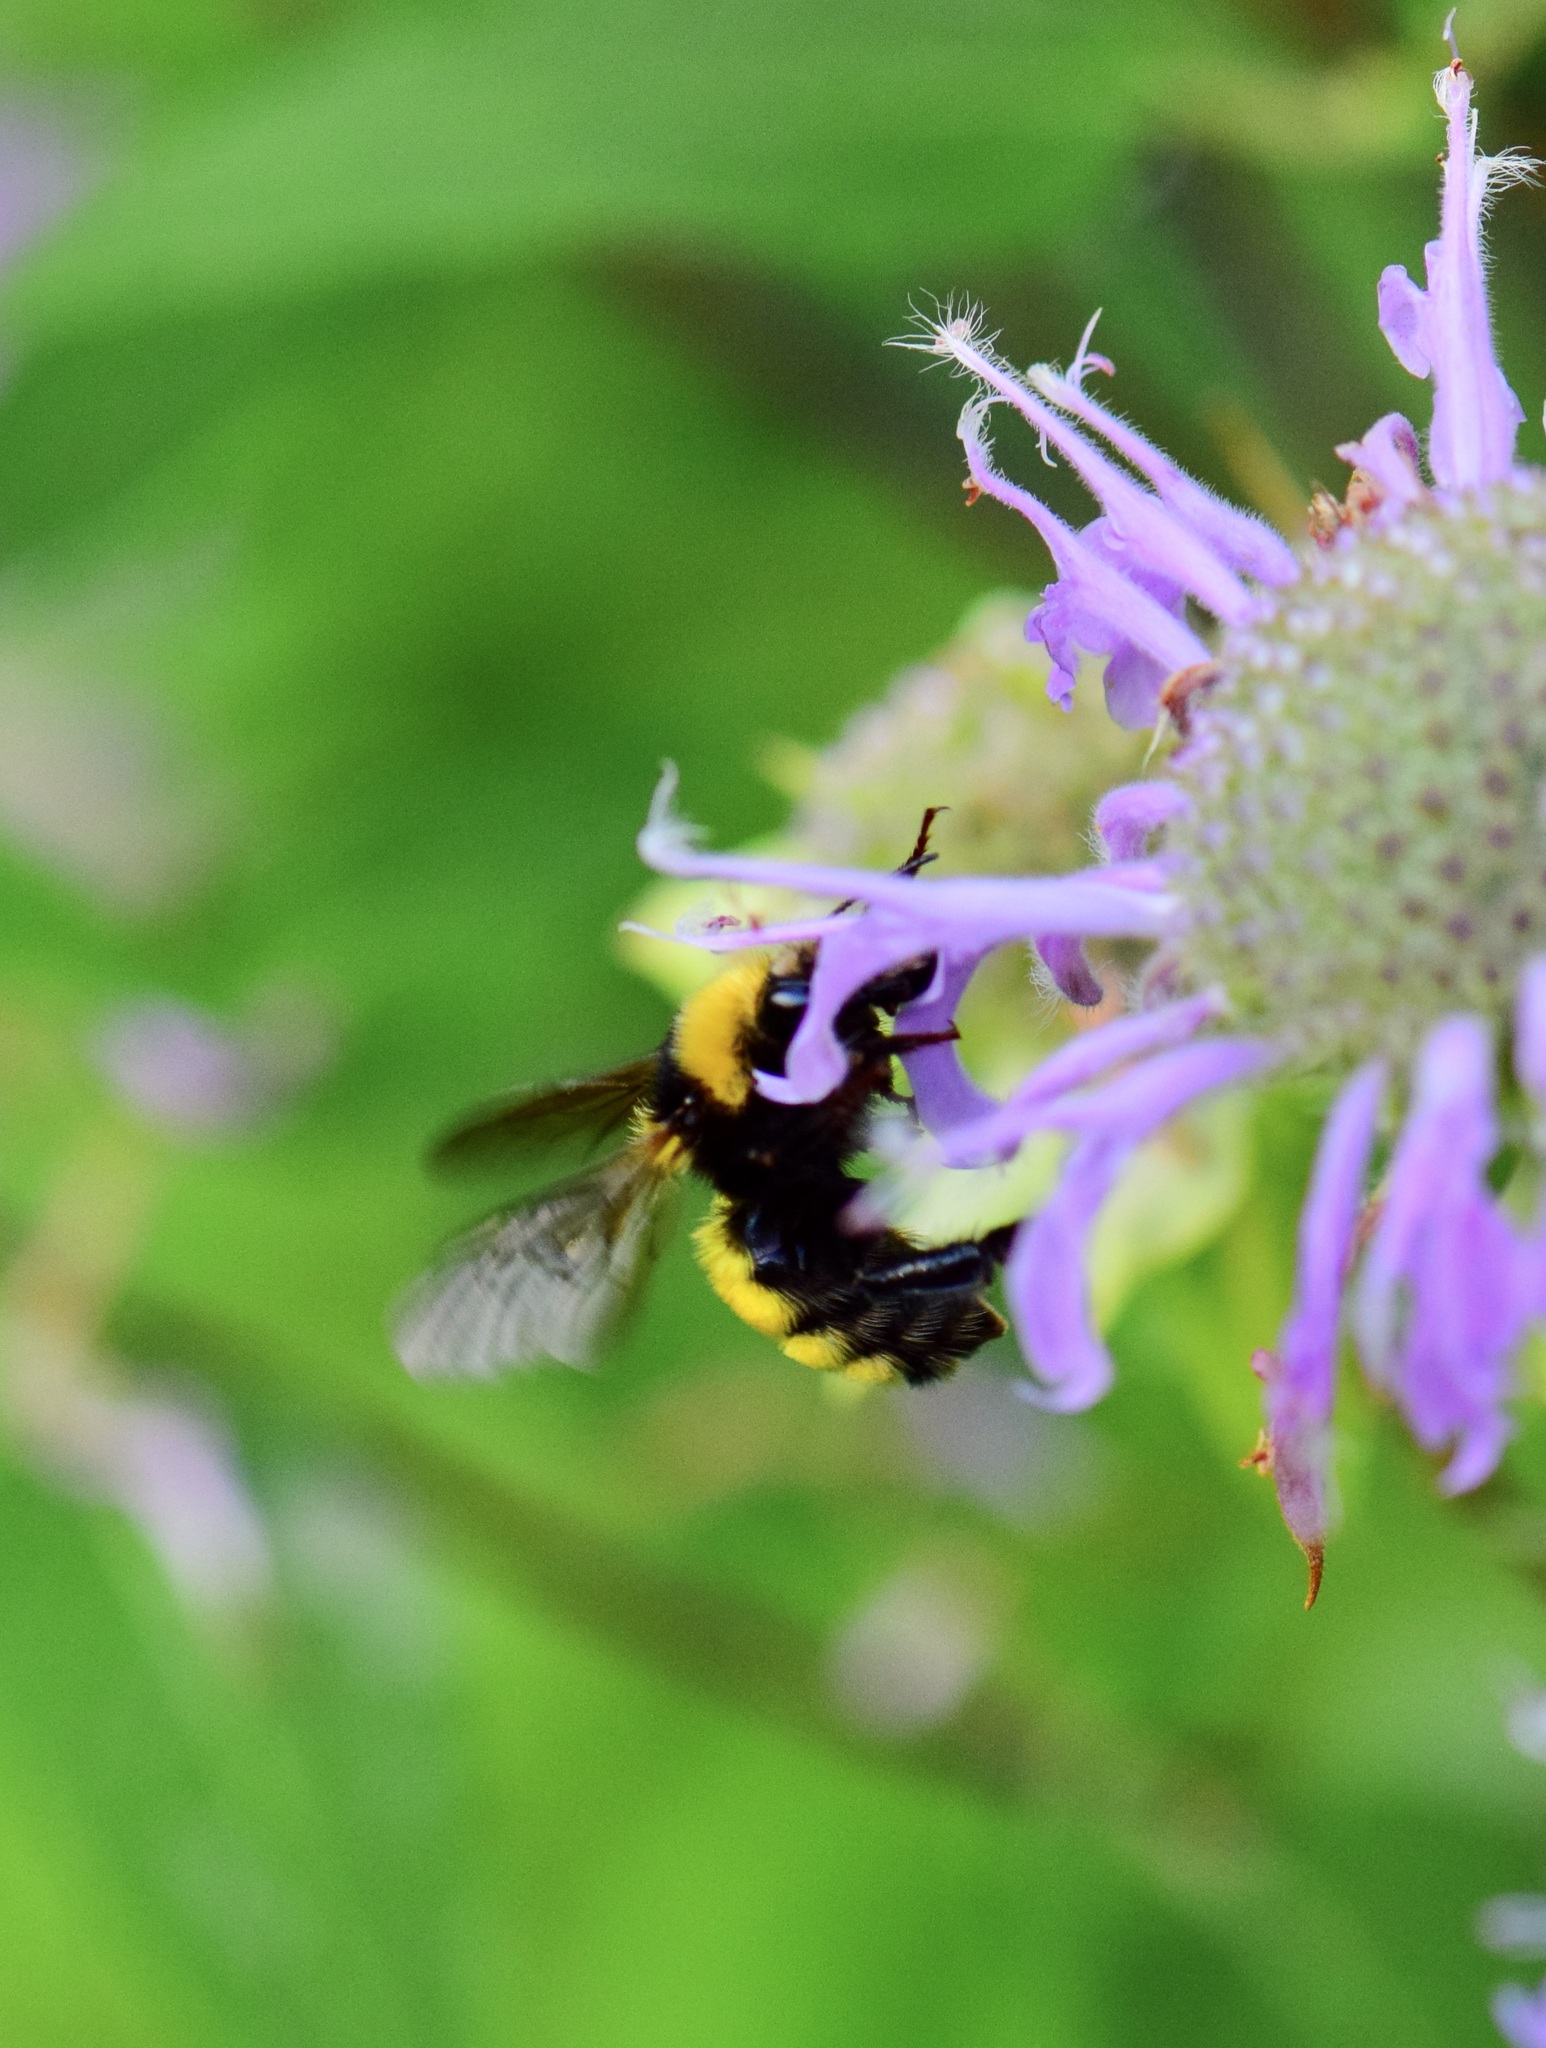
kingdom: Animalia
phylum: Arthropoda
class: Insecta
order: Hymenoptera
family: Apidae
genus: Bombus
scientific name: Bombus borealis
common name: Northern amber bumble bee
